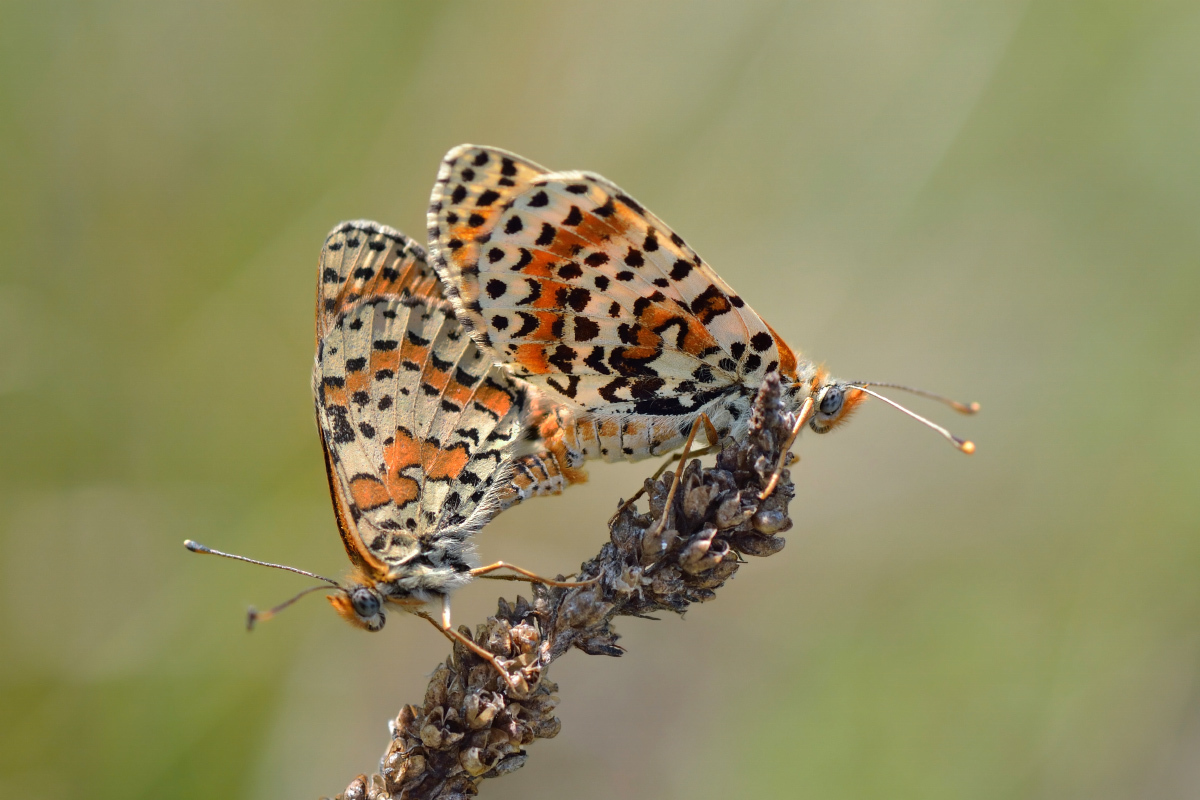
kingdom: Animalia
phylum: Arthropoda
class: Insecta
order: Lepidoptera
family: Nymphalidae
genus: Melitaea
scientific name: Melitaea didyma
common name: Spotted fritillary
